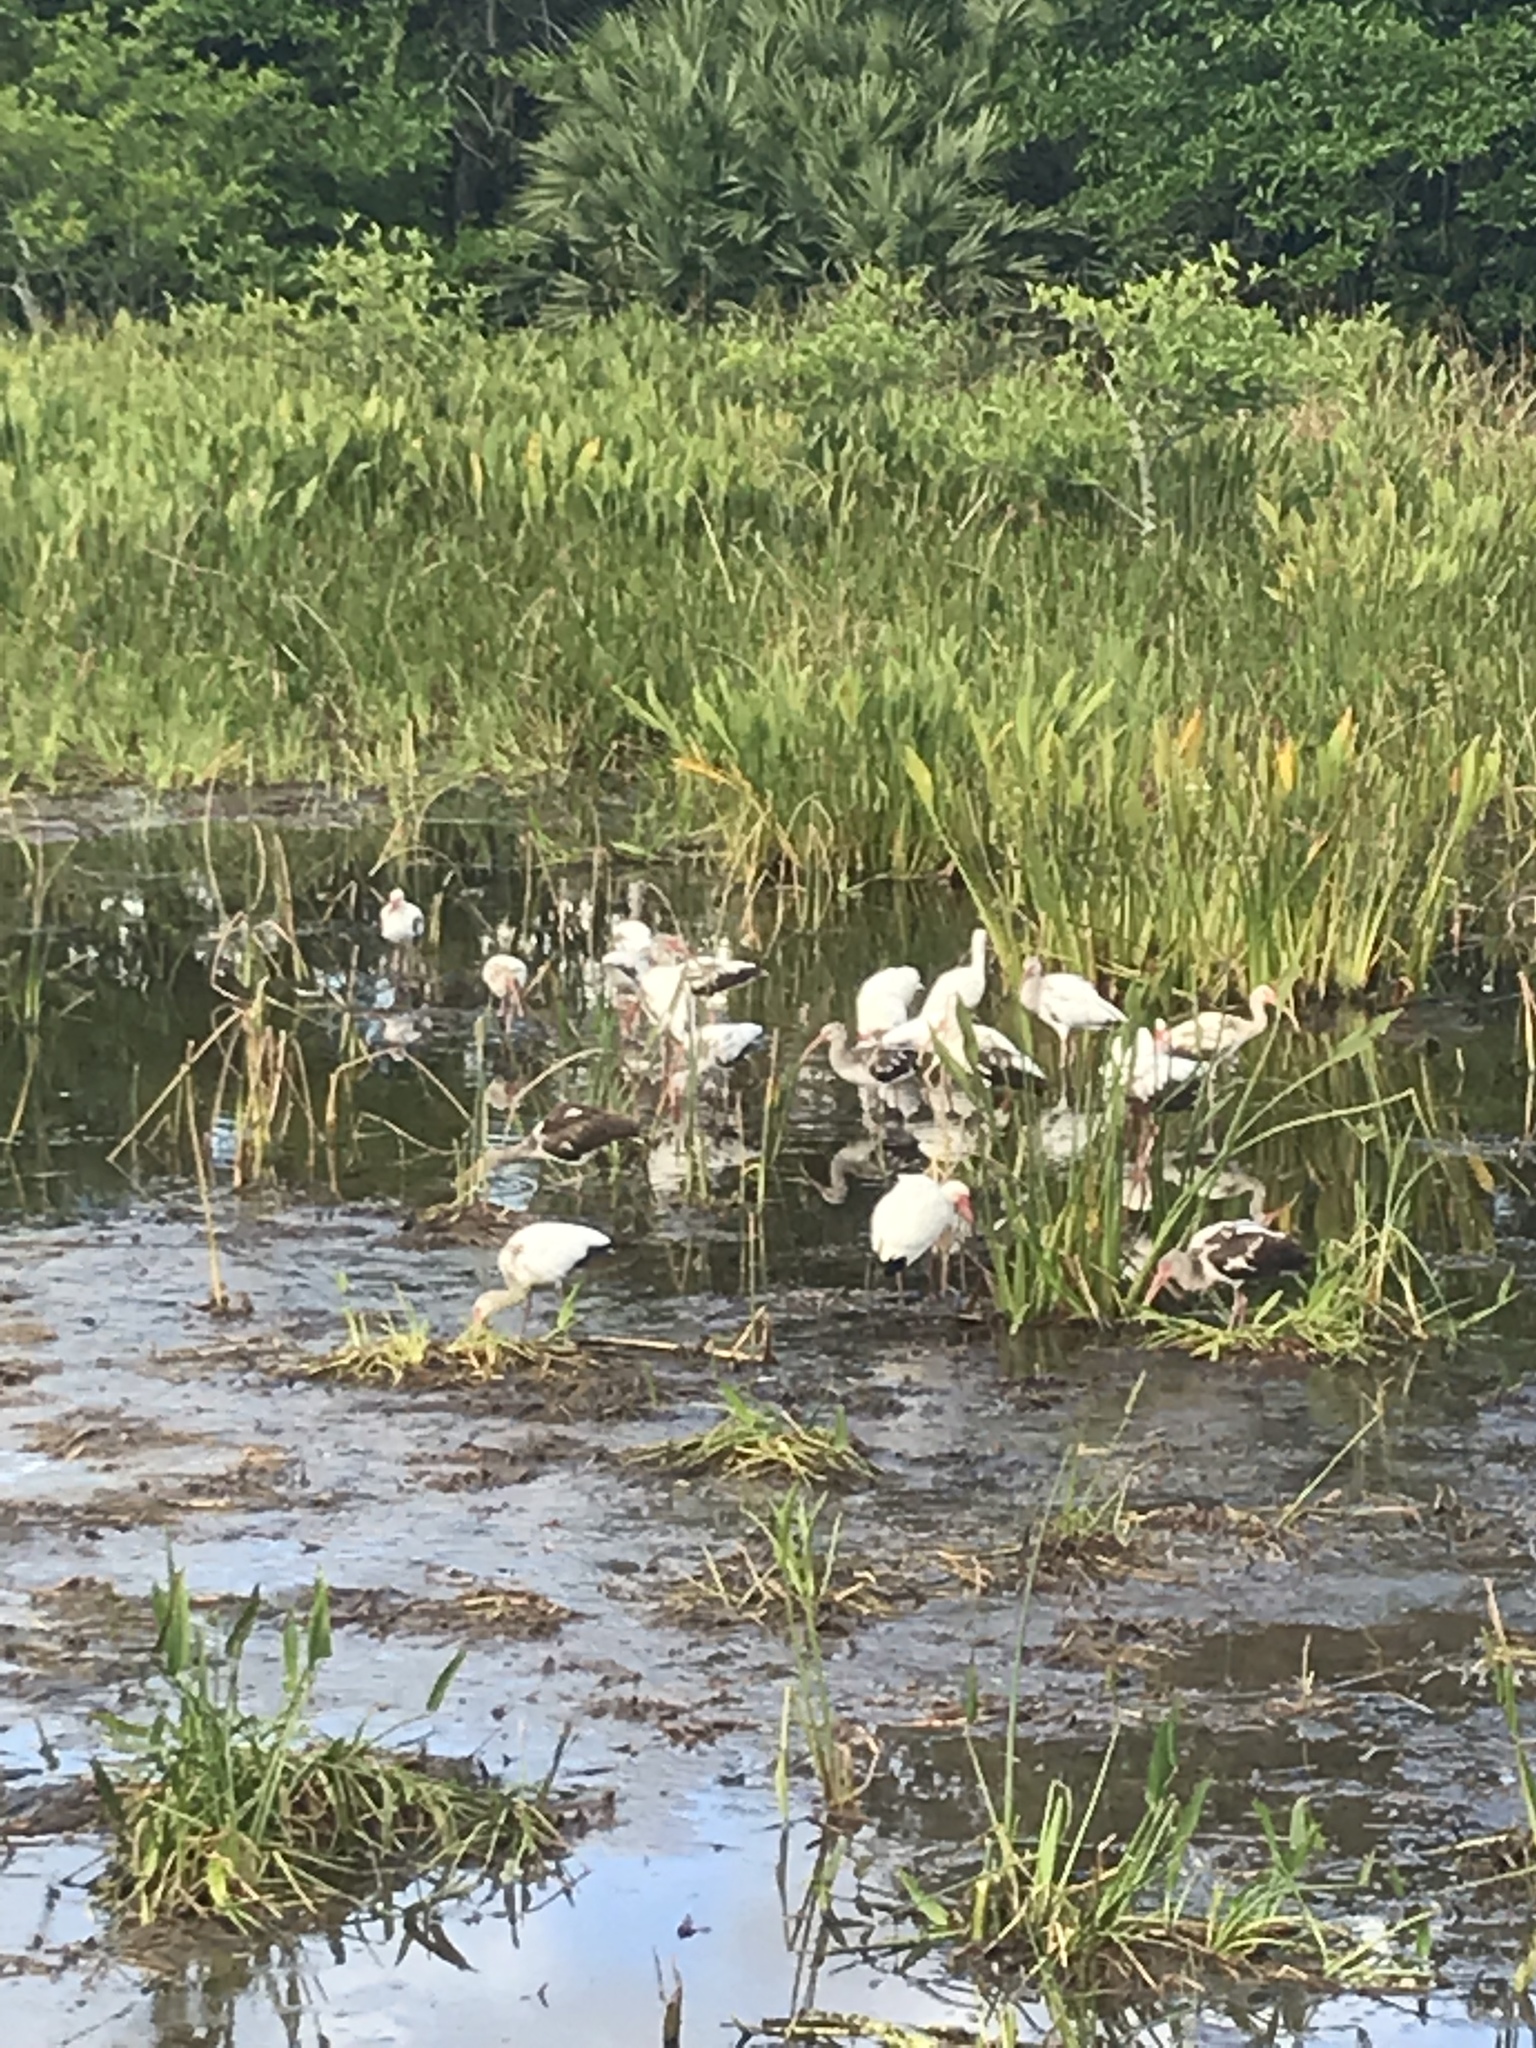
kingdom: Animalia
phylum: Chordata
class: Aves
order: Pelecaniformes
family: Threskiornithidae
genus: Eudocimus
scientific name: Eudocimus albus
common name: White ibis
